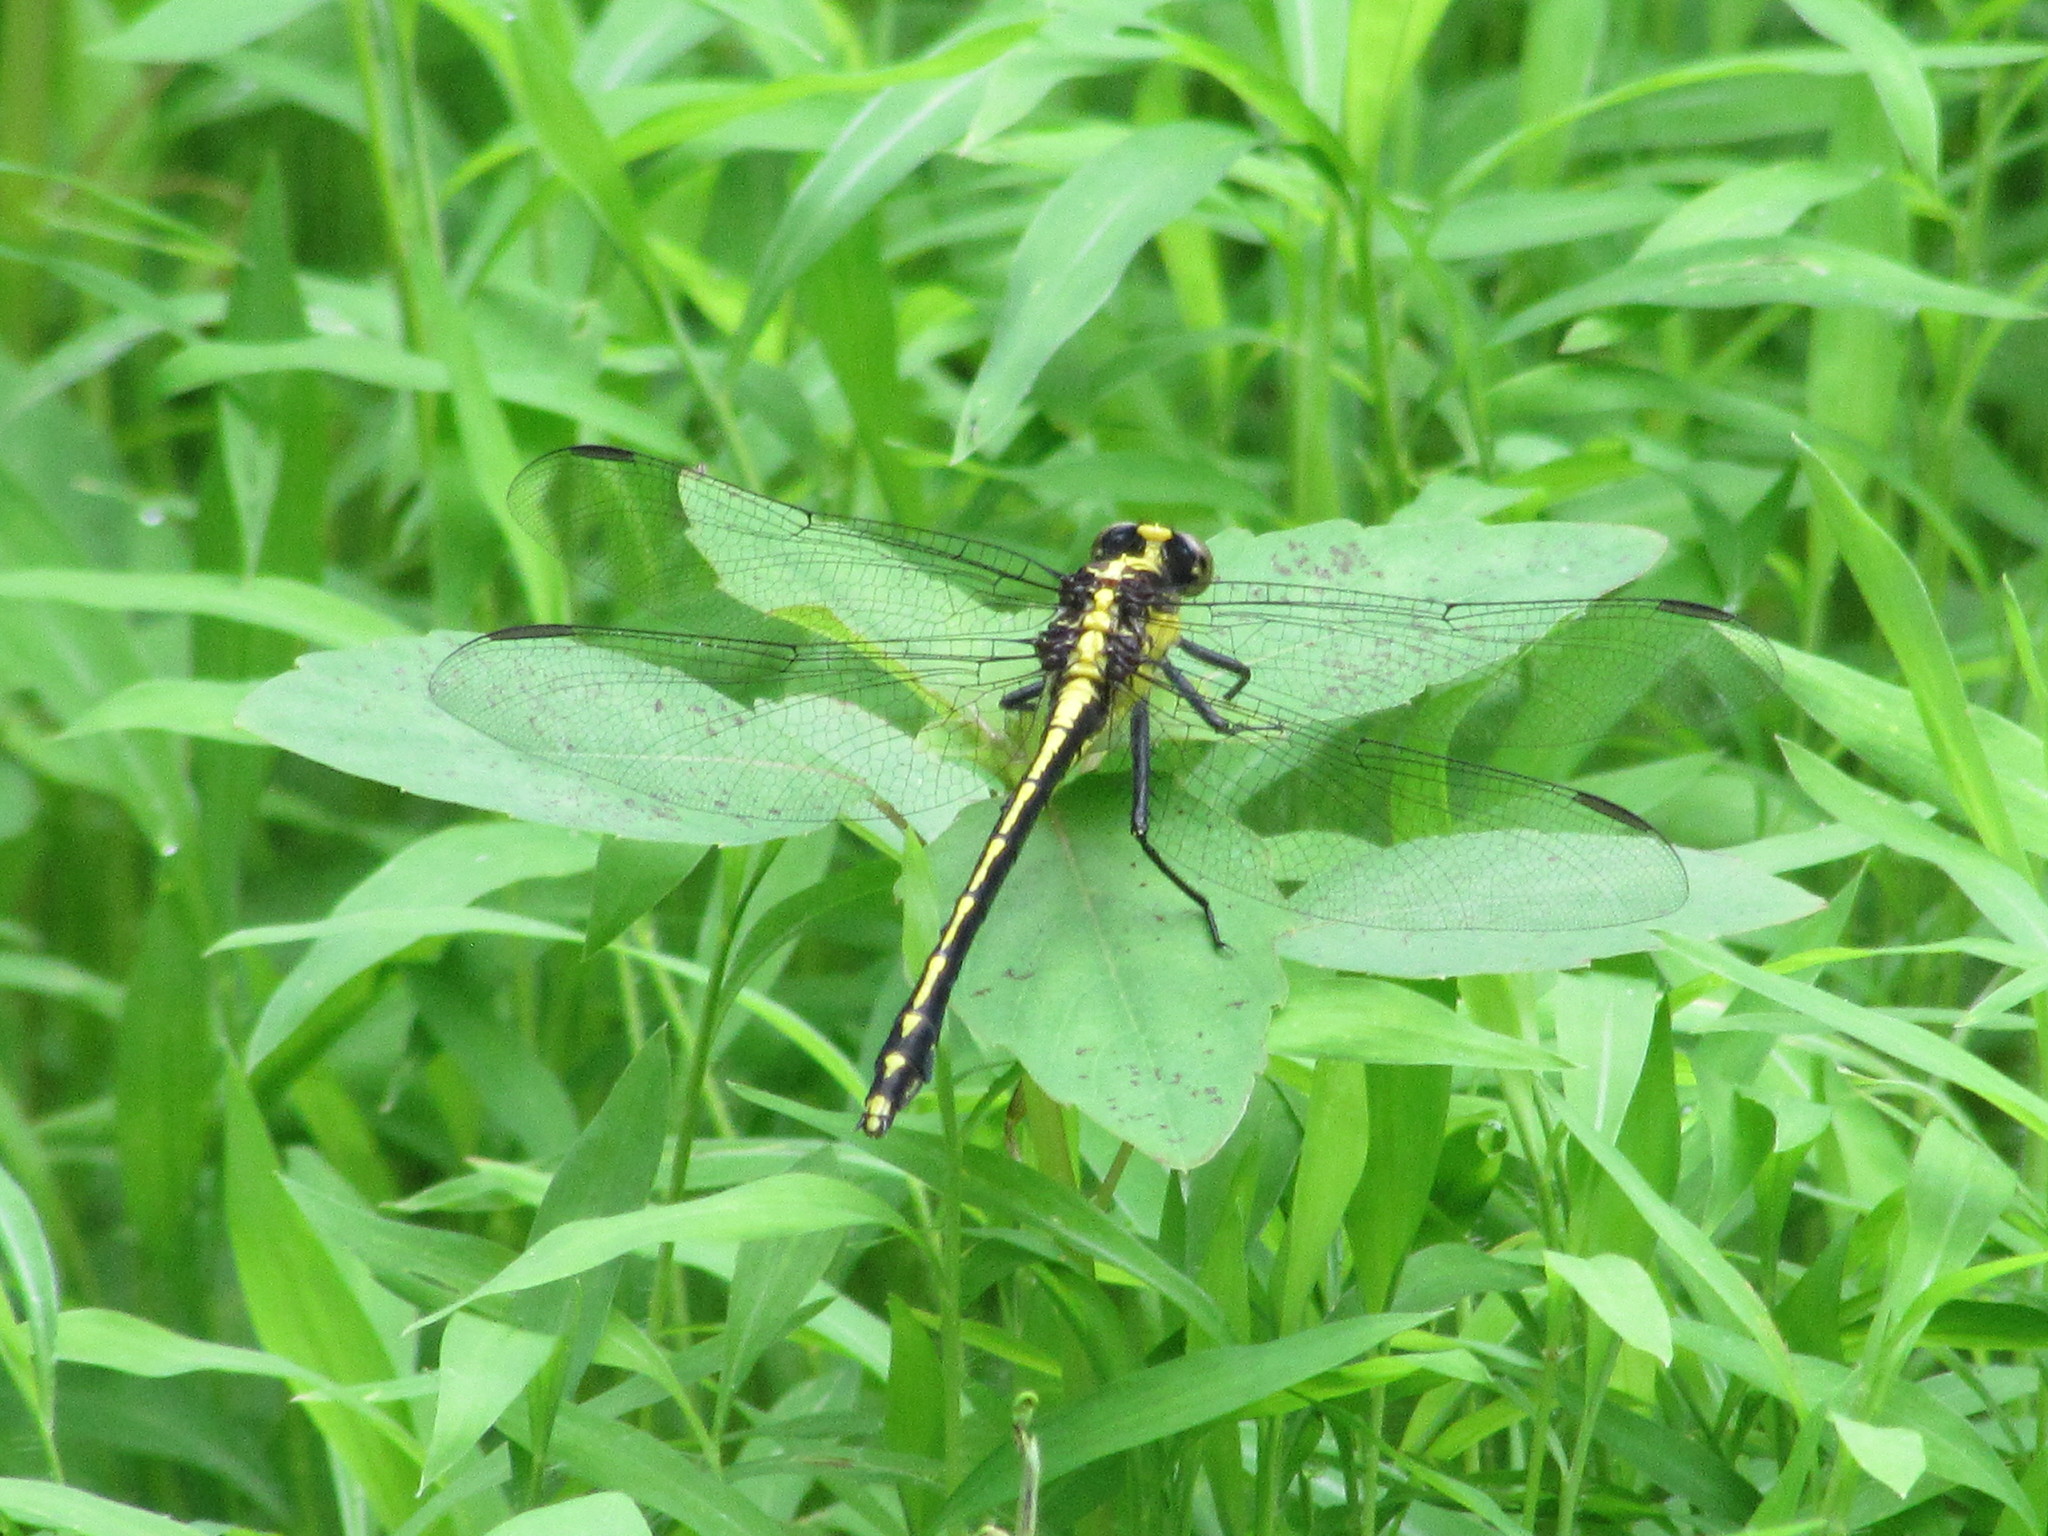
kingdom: Animalia
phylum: Arthropoda
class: Insecta
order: Odonata
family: Gomphidae
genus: Dromogomphus
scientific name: Dromogomphus spinosus
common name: Black-shouldered spinyleg
